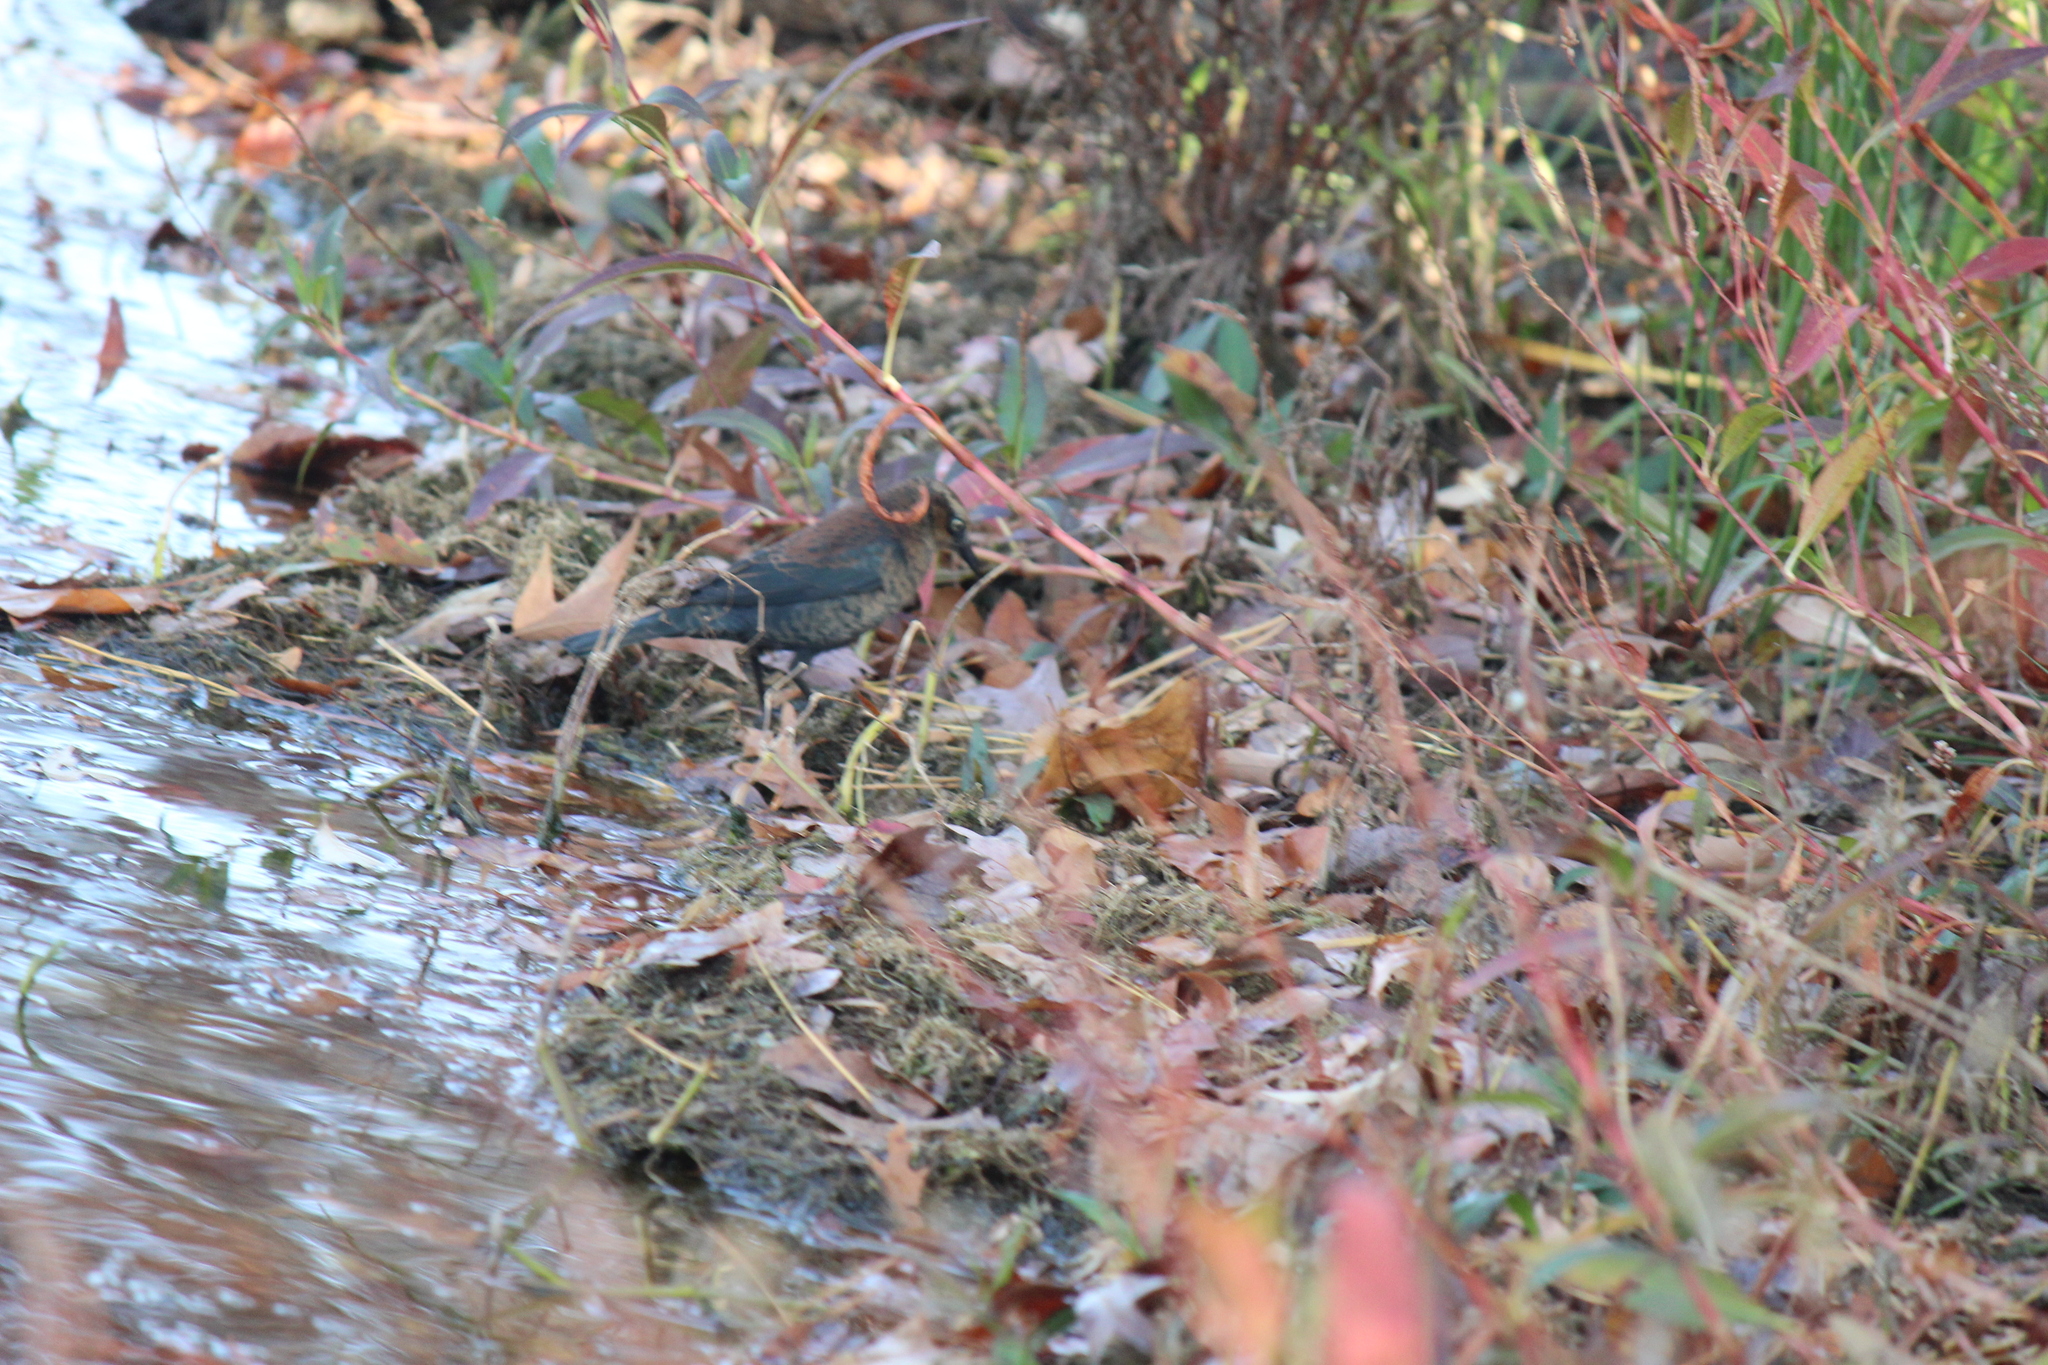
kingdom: Animalia
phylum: Chordata
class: Aves
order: Passeriformes
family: Icteridae
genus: Euphagus
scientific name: Euphagus carolinus
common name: Rusty blackbird
